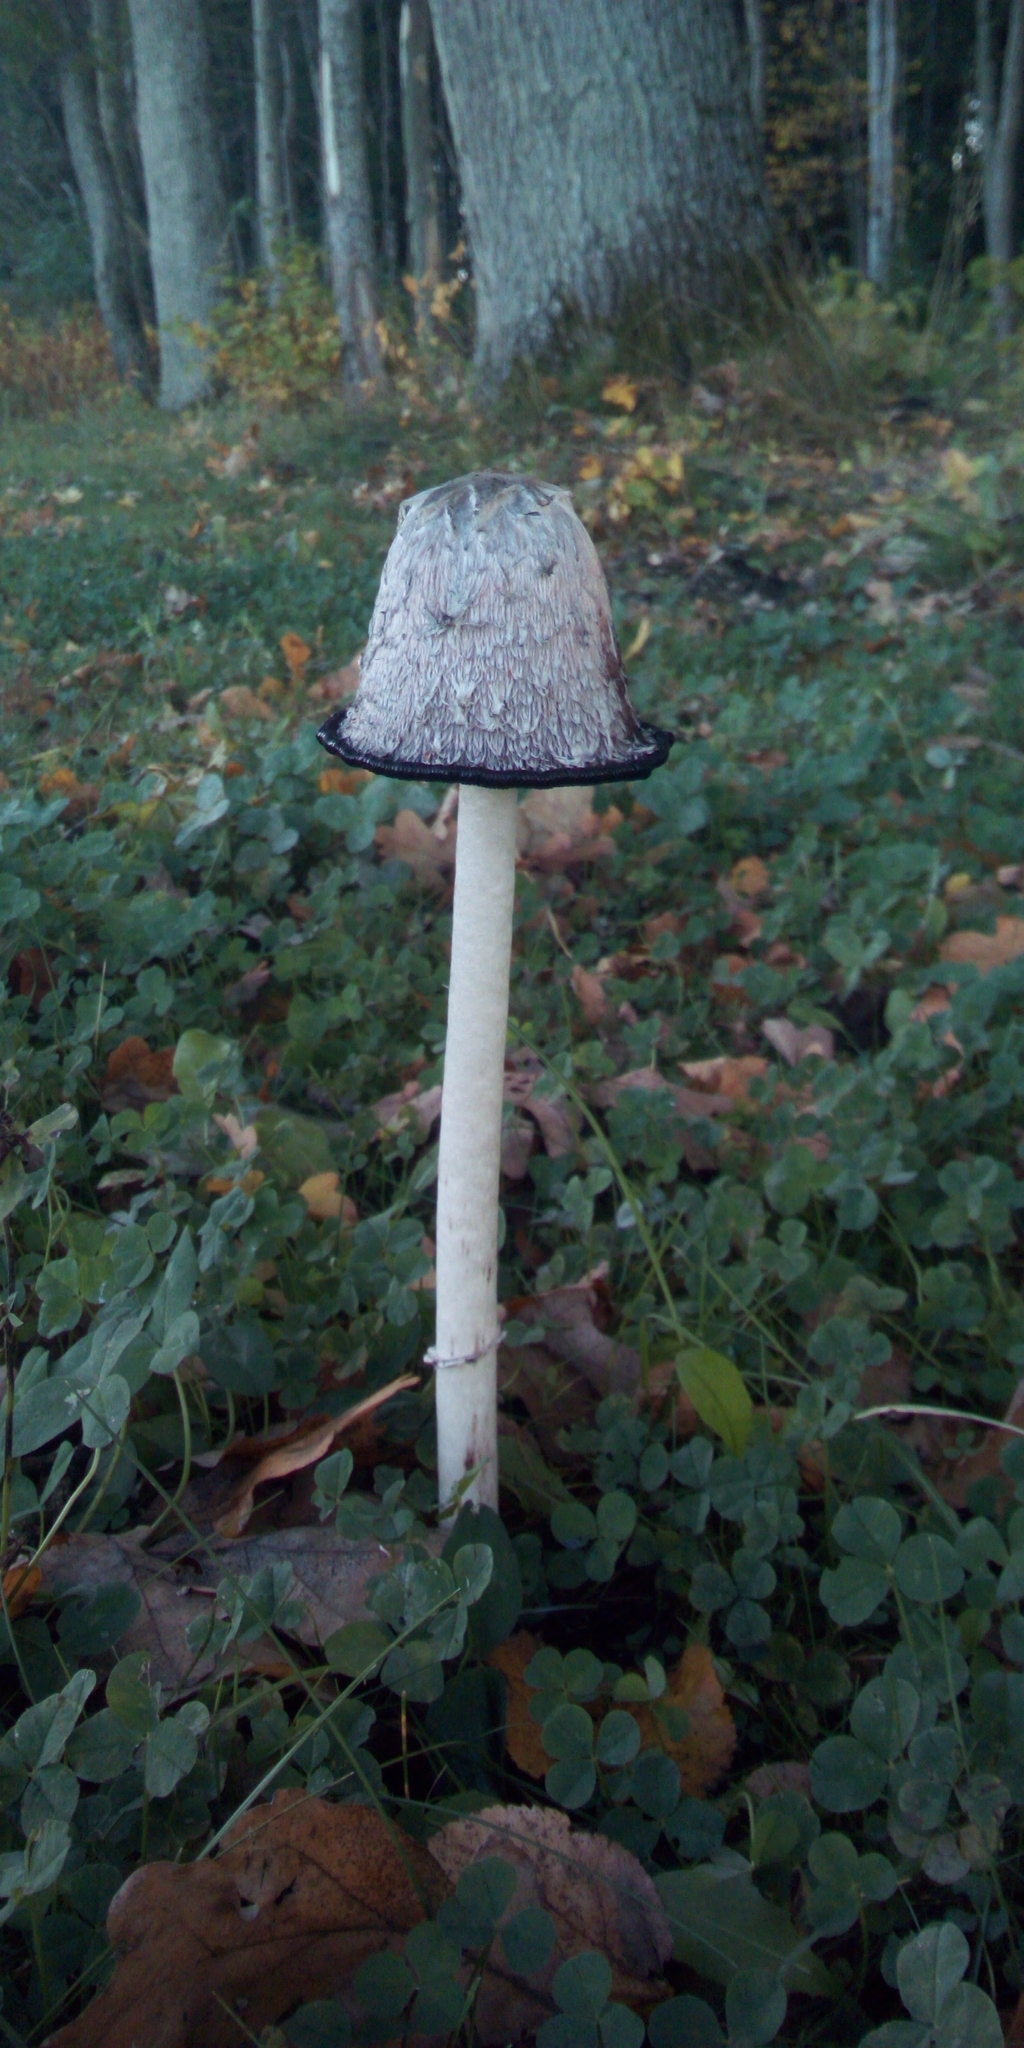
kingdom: Fungi
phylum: Basidiomycota
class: Agaricomycetes
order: Agaricales
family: Agaricaceae
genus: Coprinus
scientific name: Coprinus comatus
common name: Lawyer's wig
